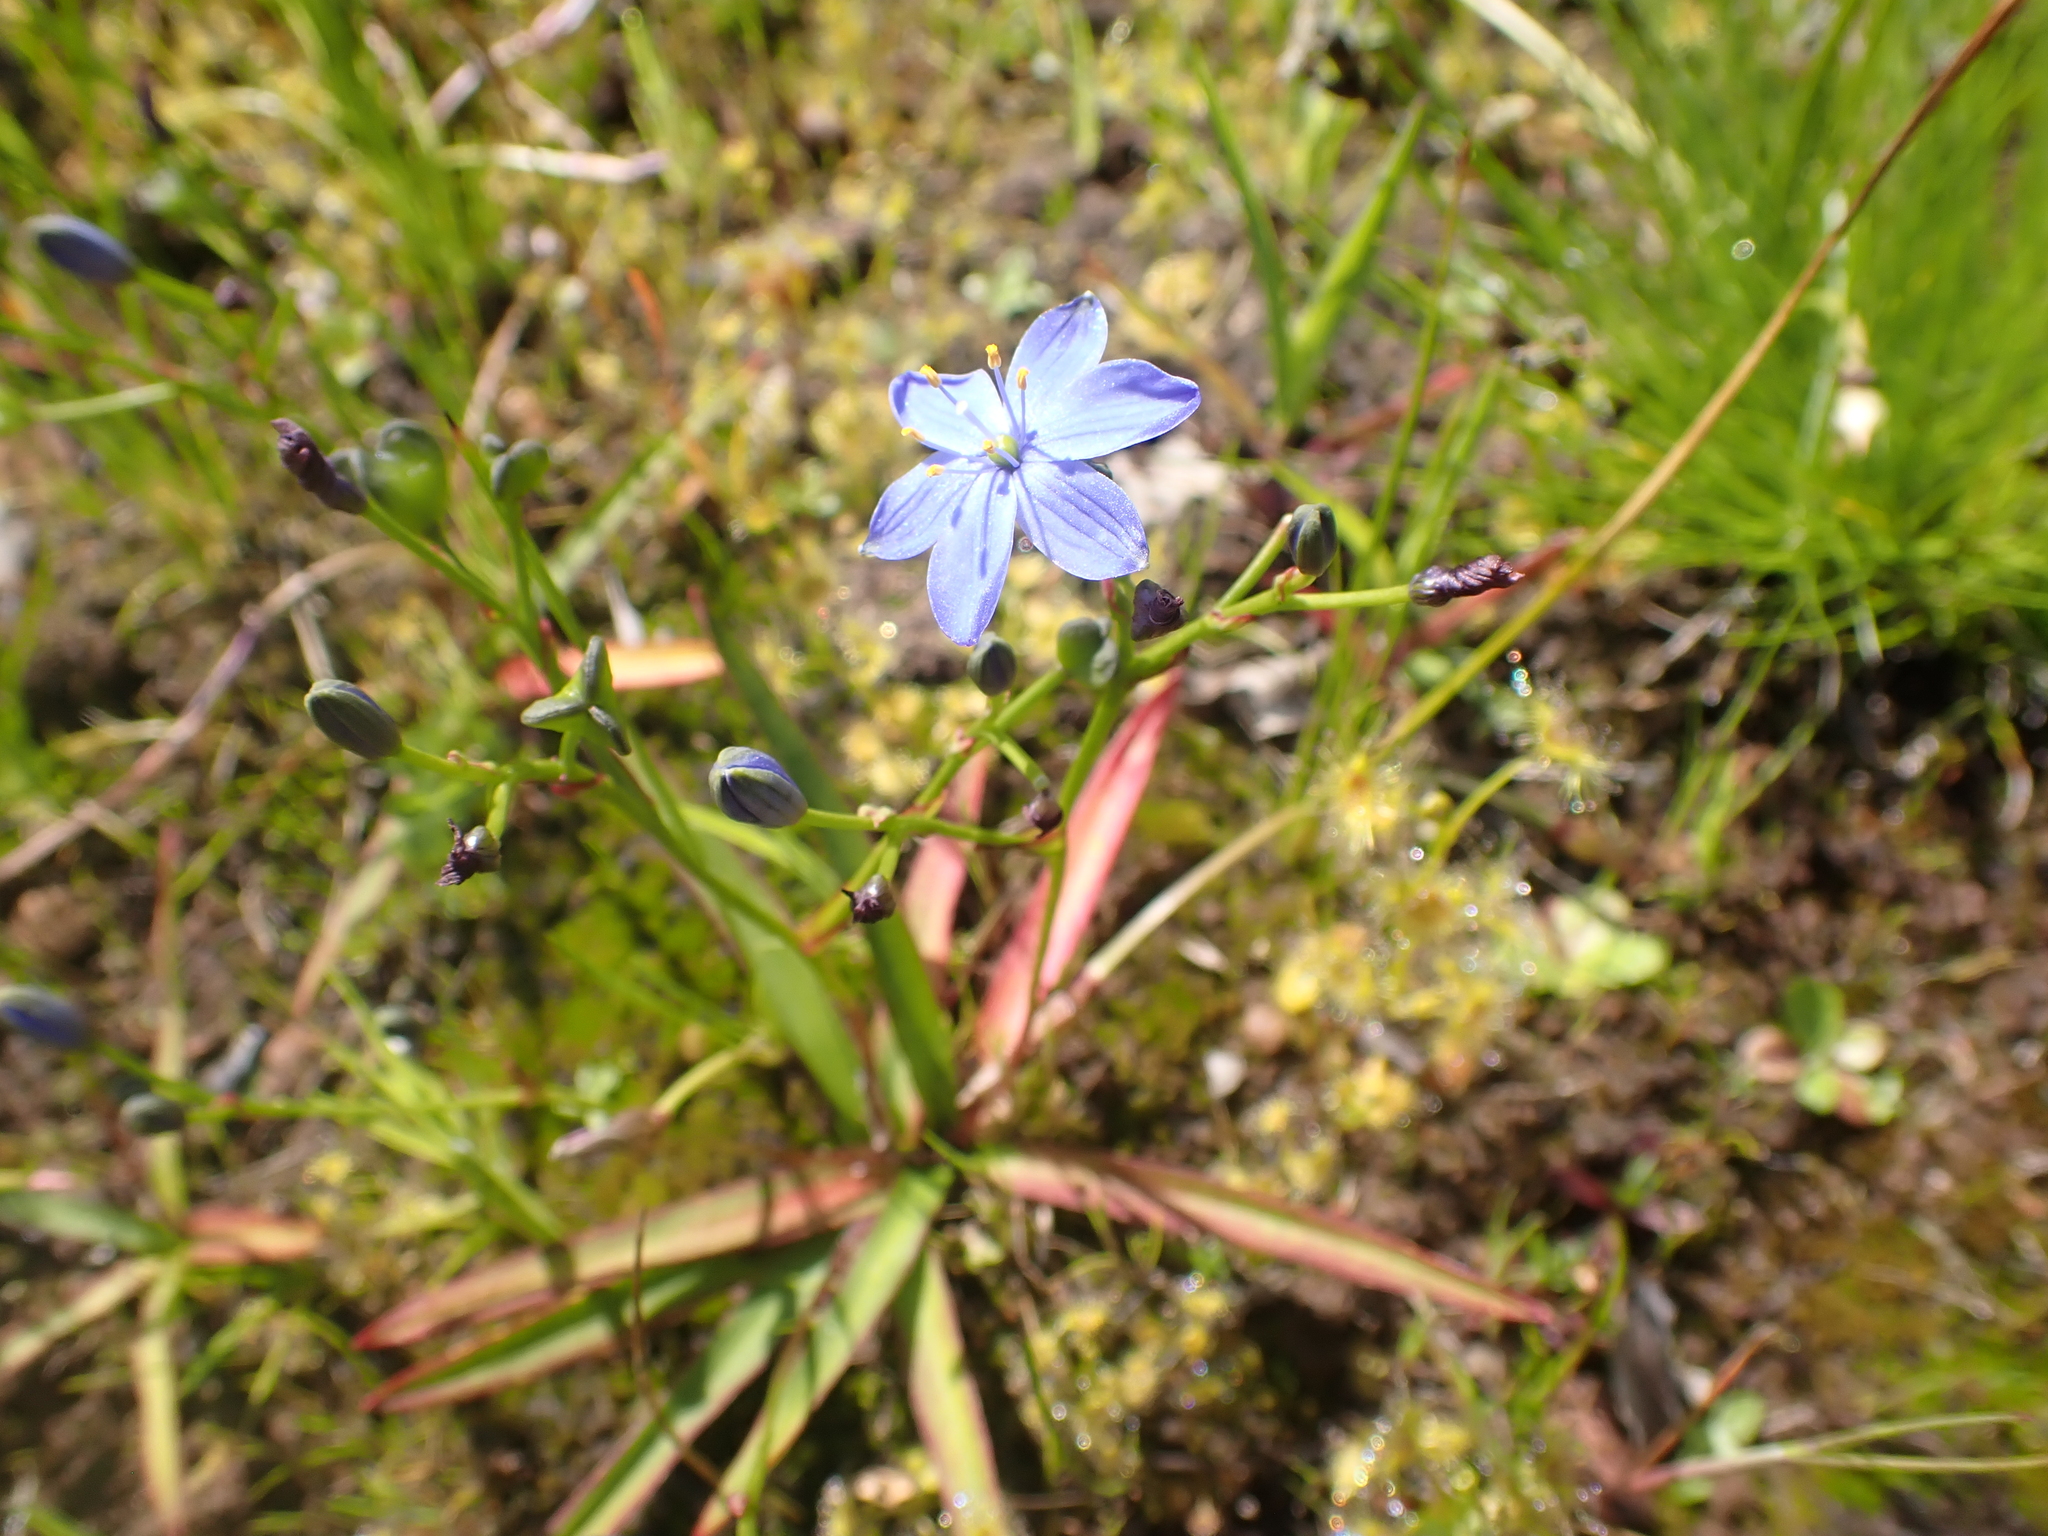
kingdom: Plantae
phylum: Tracheophyta
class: Liliopsida
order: Asparagales
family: Asphodelaceae
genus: Chamaescilla
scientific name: Chamaescilla corymbosa
